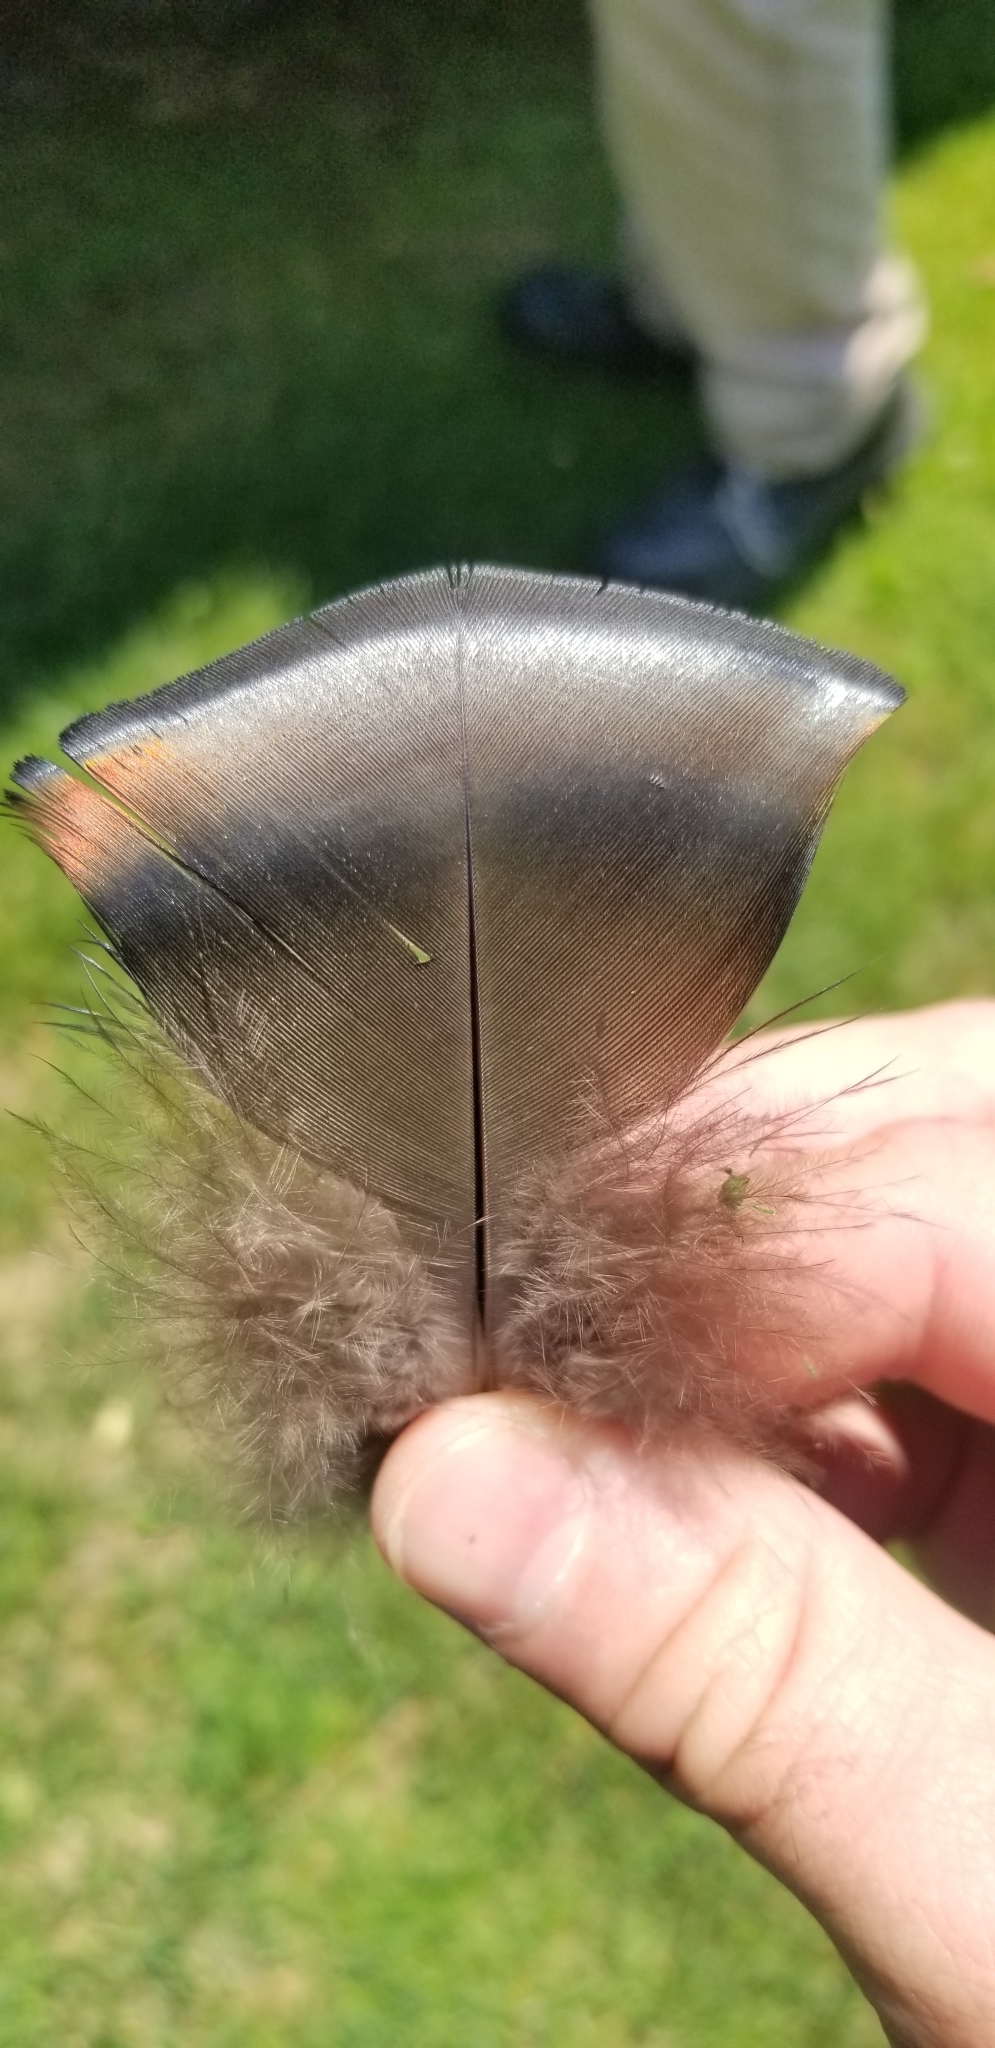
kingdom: Animalia
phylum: Chordata
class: Aves
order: Galliformes
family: Phasianidae
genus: Meleagris
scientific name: Meleagris gallopavo
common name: Wild turkey
